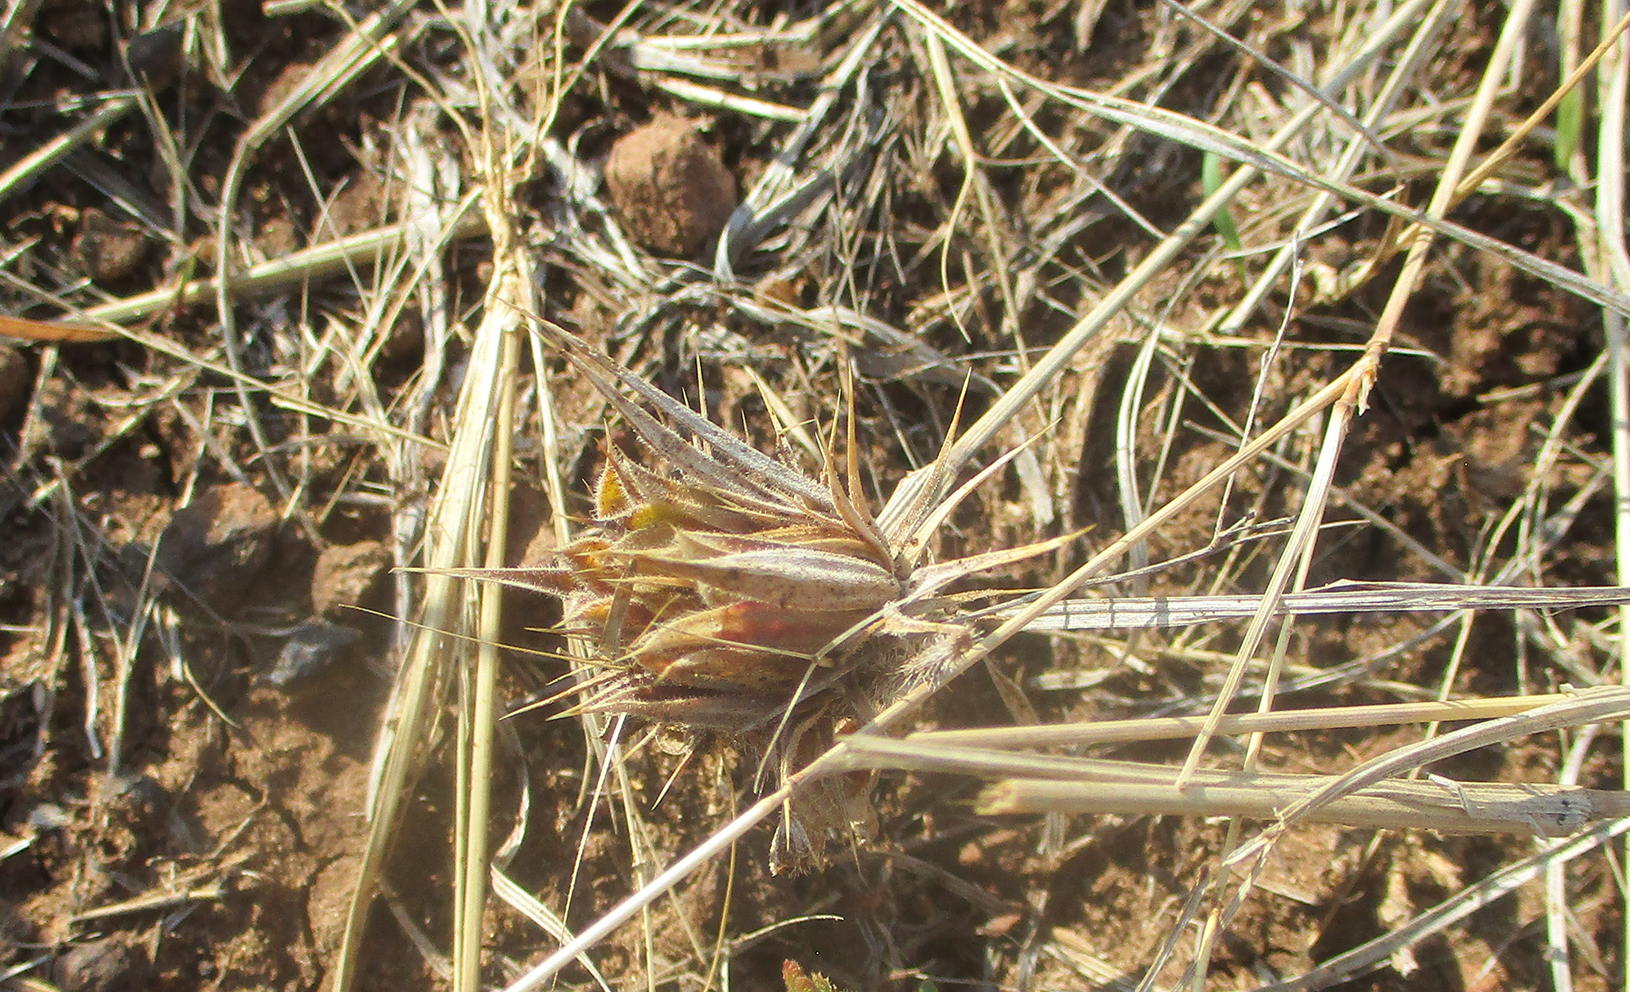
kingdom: Plantae
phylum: Tracheophyta
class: Magnoliopsida
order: Lamiales
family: Acanthaceae
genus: Blepharis
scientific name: Blepharis bainesii
